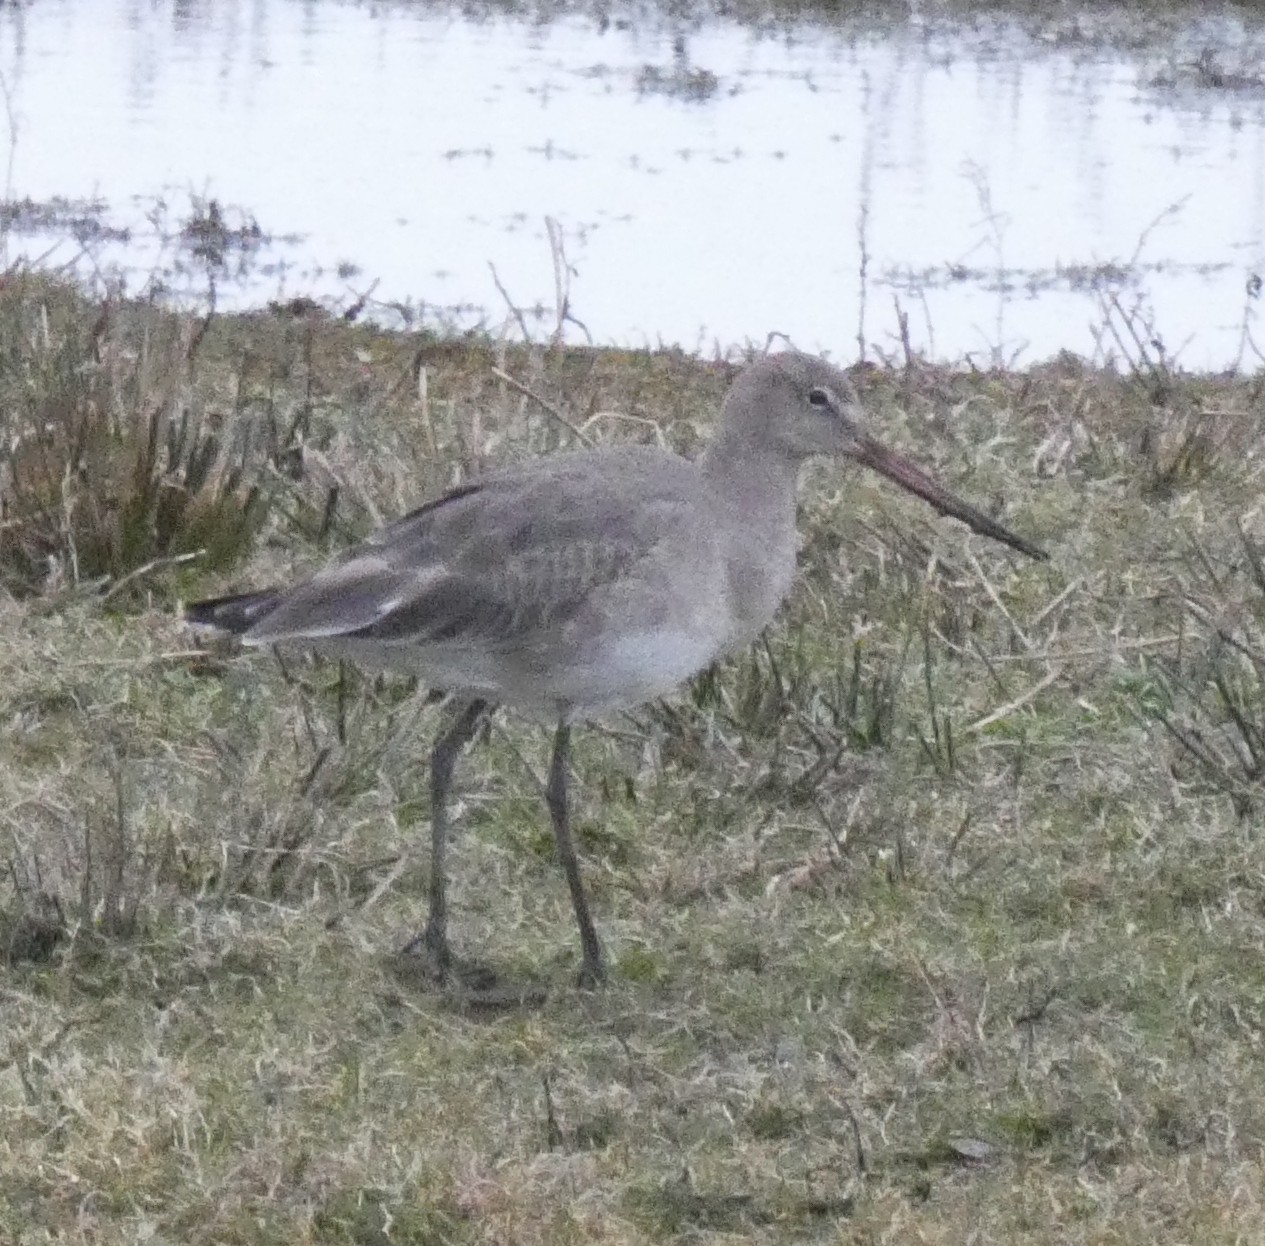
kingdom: Animalia
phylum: Chordata
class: Aves
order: Charadriiformes
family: Scolopacidae
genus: Limosa
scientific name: Limosa limosa
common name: Black-tailed godwit
